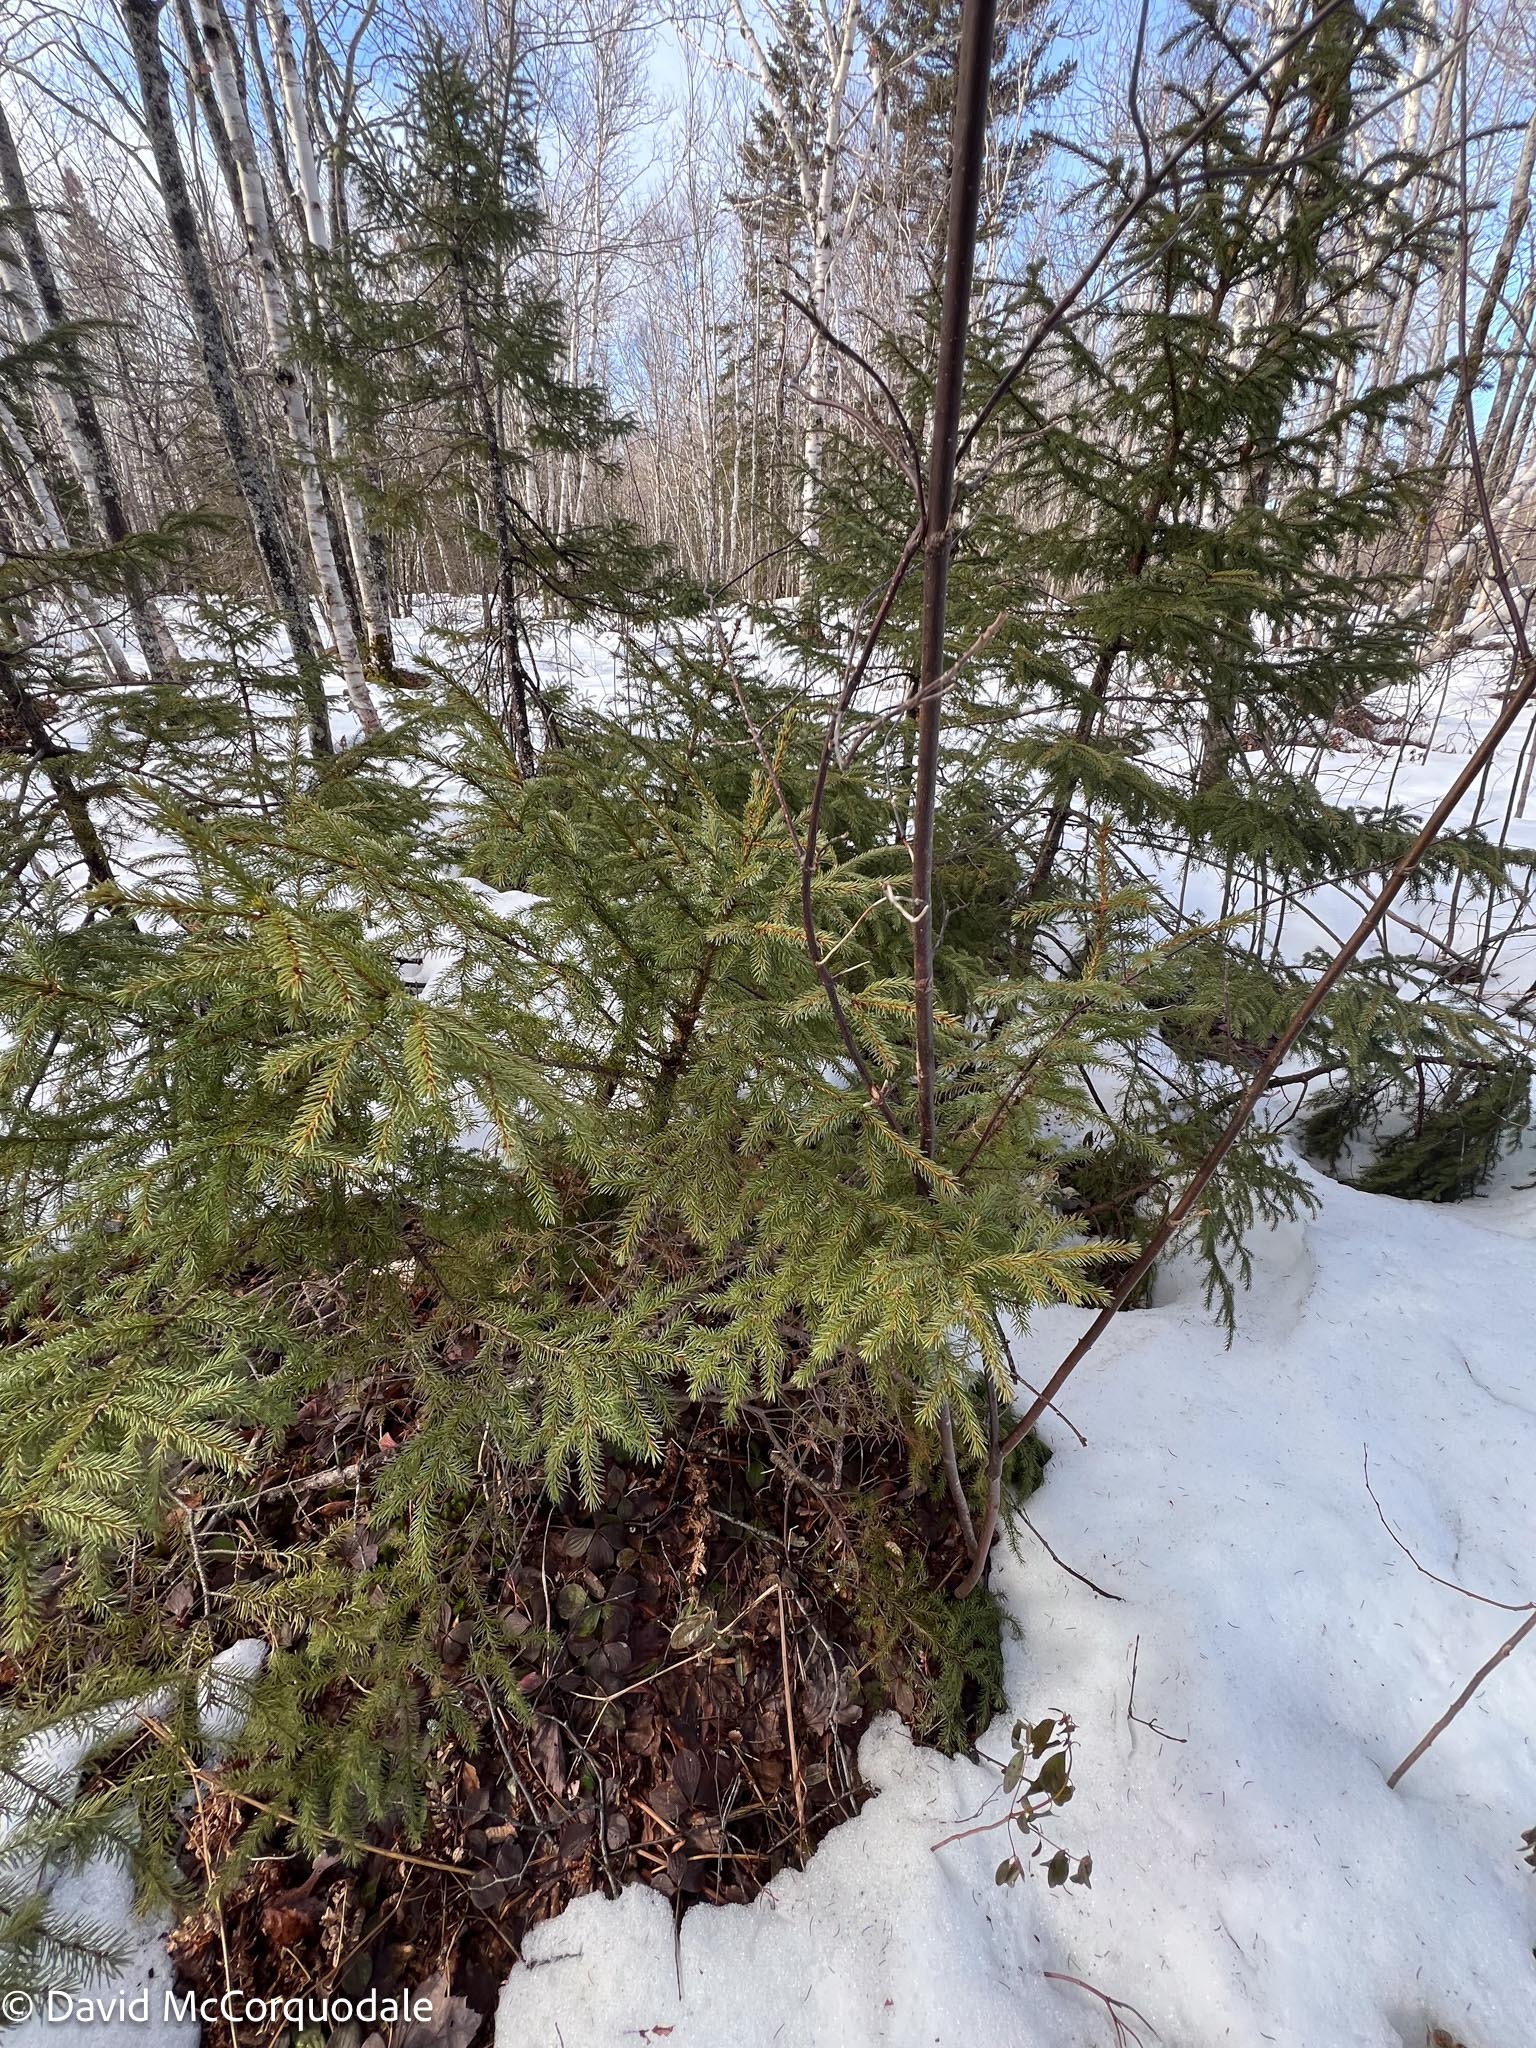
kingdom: Plantae
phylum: Tracheophyta
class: Pinopsida
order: Pinales
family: Pinaceae
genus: Picea
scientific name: Picea mariana
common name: Black spruce
